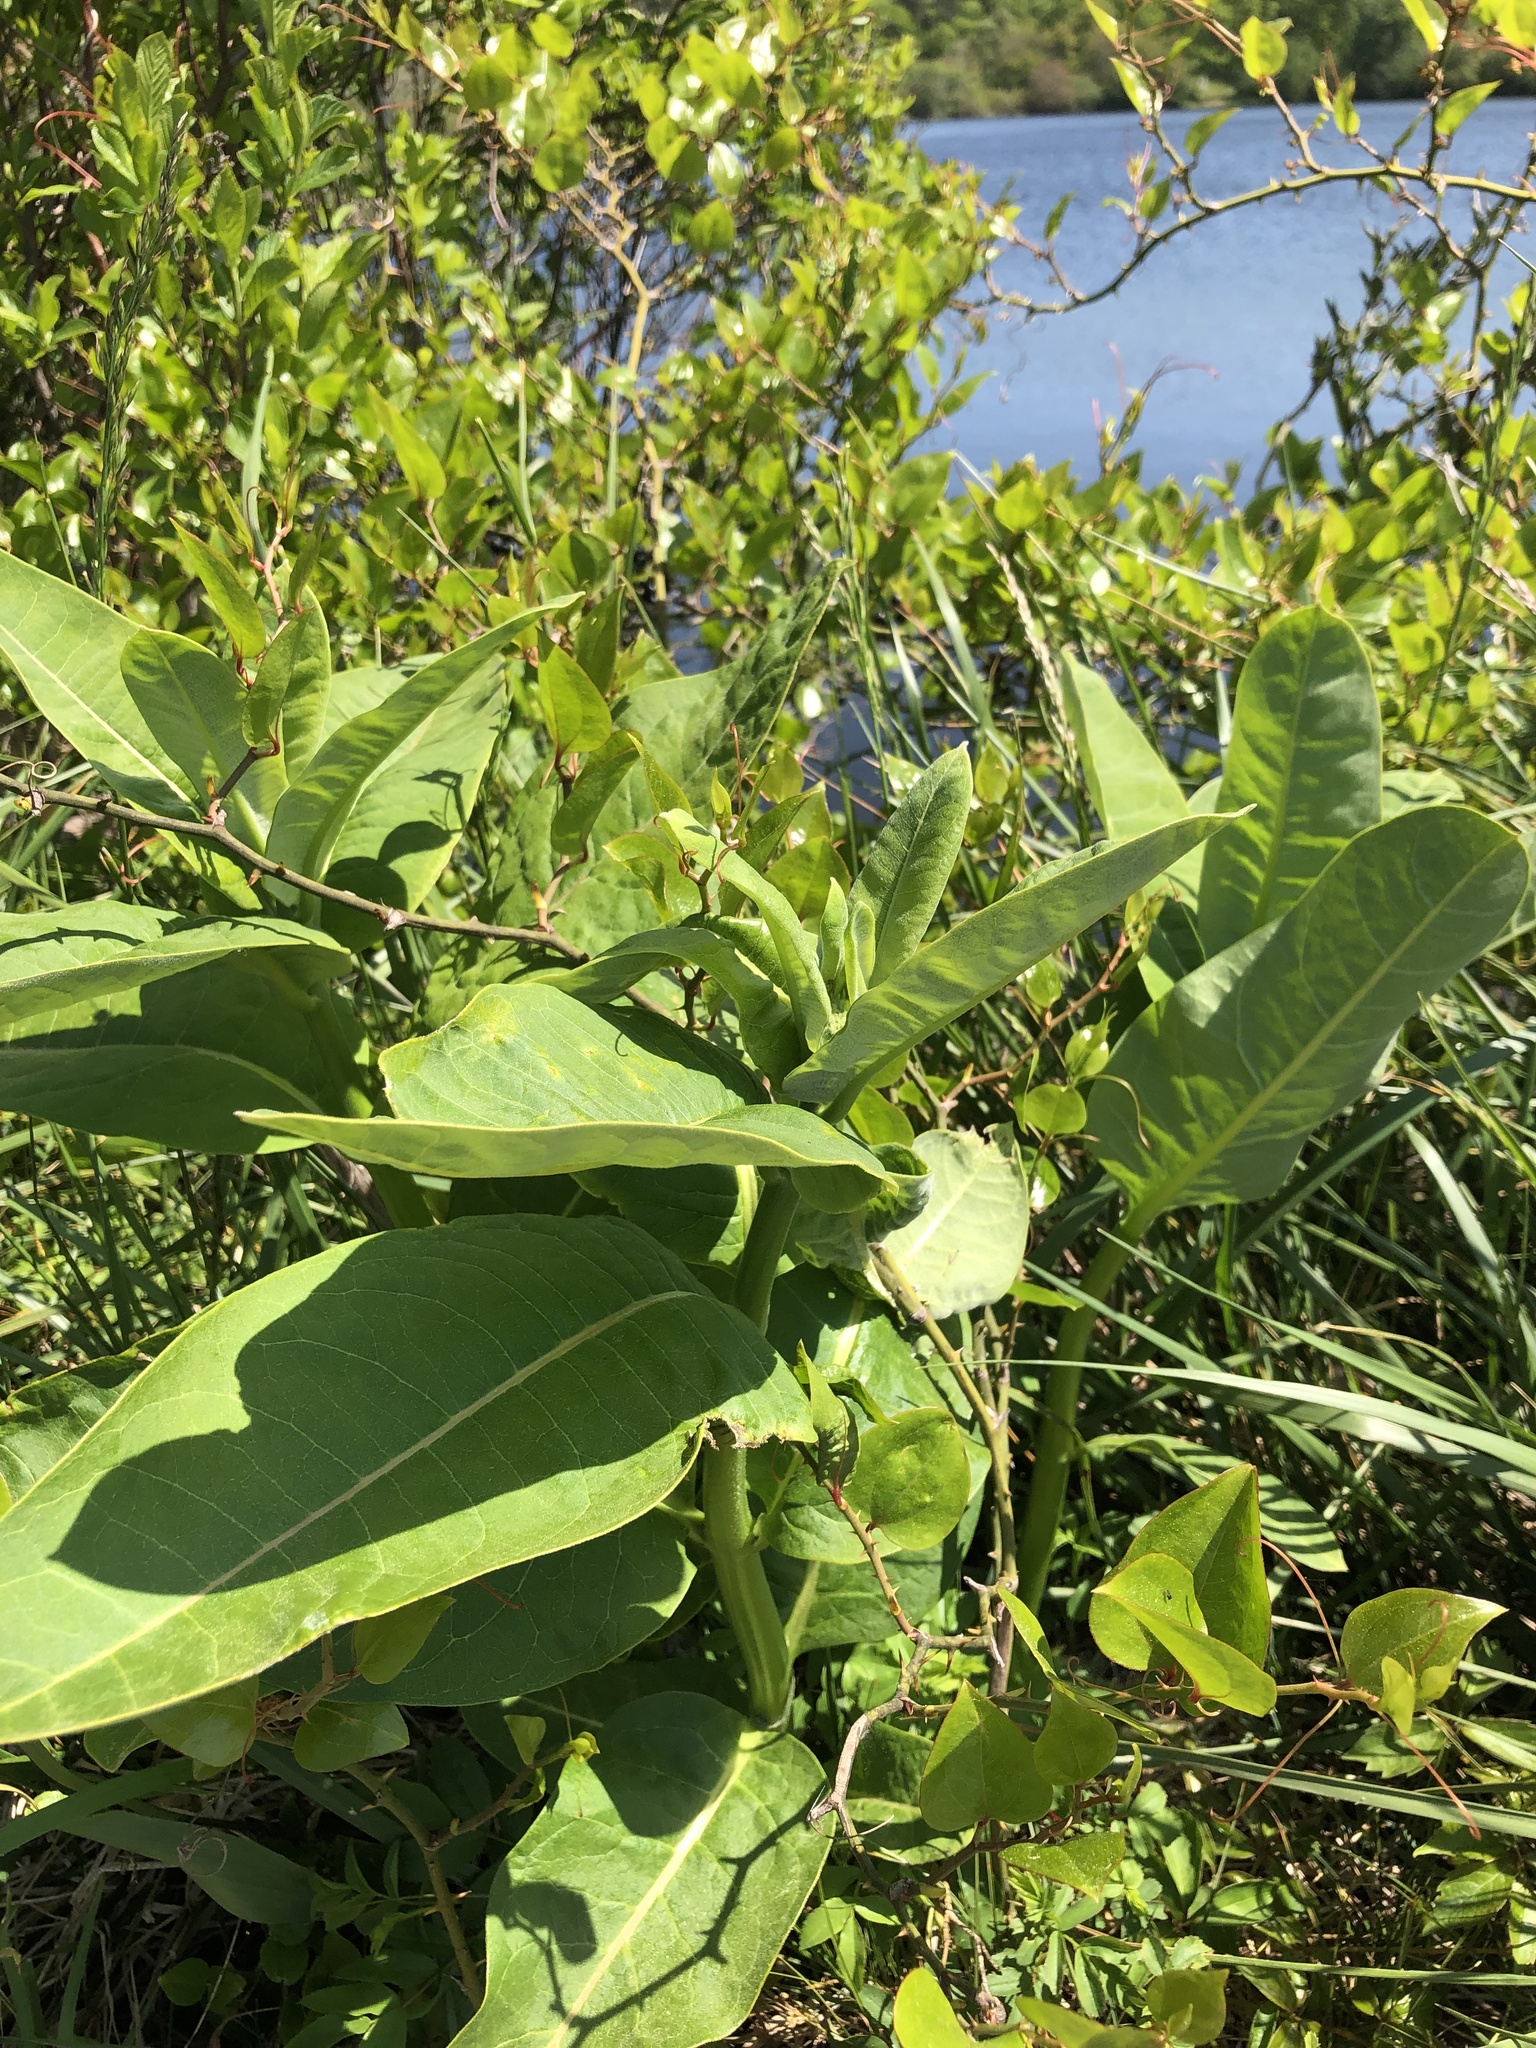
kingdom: Plantae
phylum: Tracheophyta
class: Magnoliopsida
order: Gentianales
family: Apocynaceae
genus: Asclepias
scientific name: Asclepias syriaca
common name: Common milkweed
